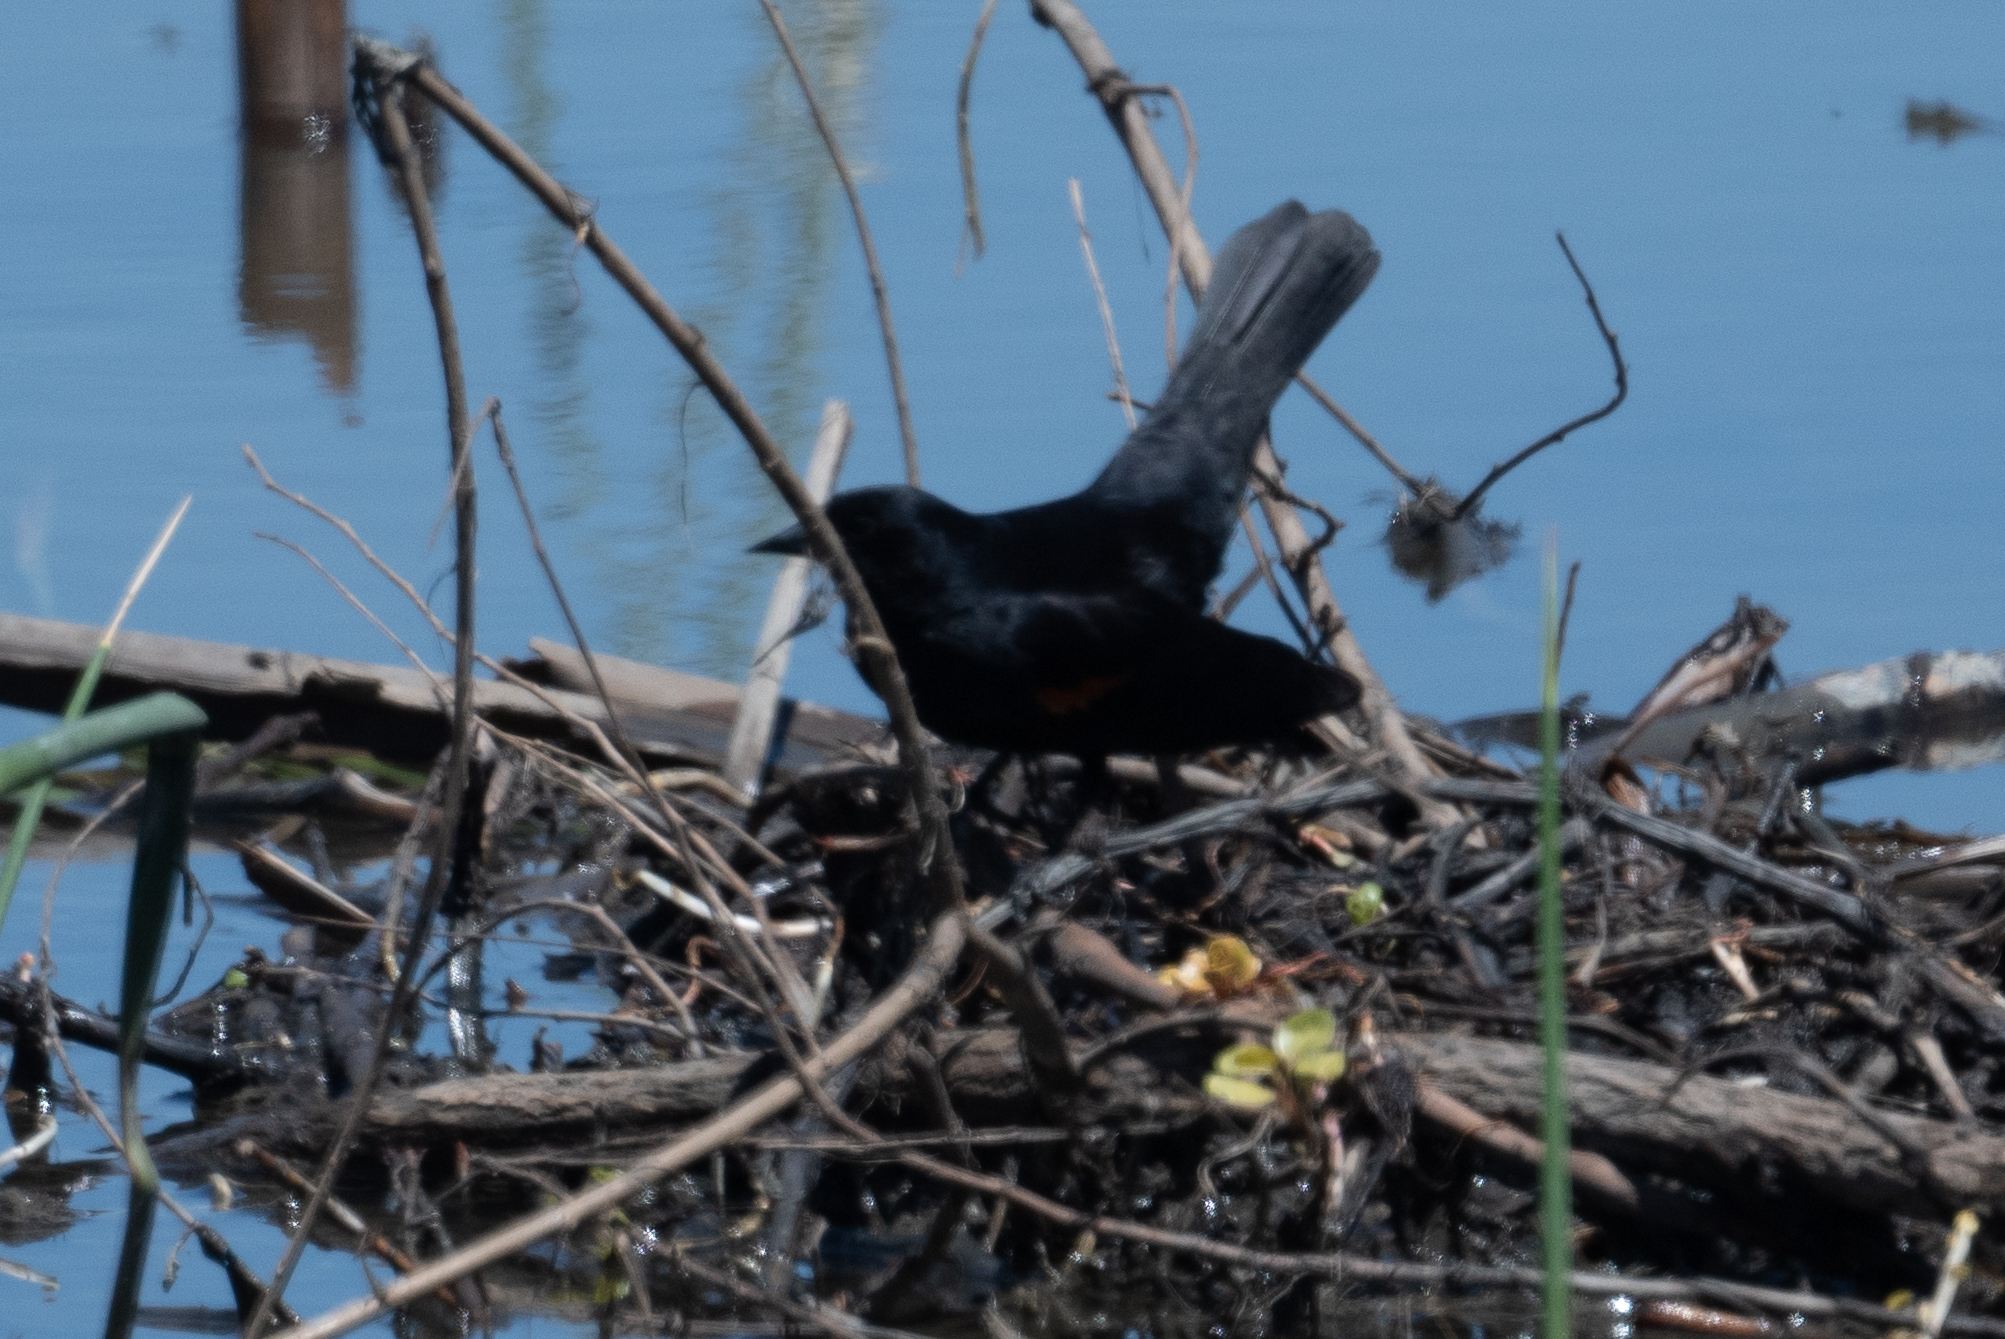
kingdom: Animalia
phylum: Chordata
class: Aves
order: Passeriformes
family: Icteridae
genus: Agelaius
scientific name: Agelaius phoeniceus
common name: Red-winged blackbird
